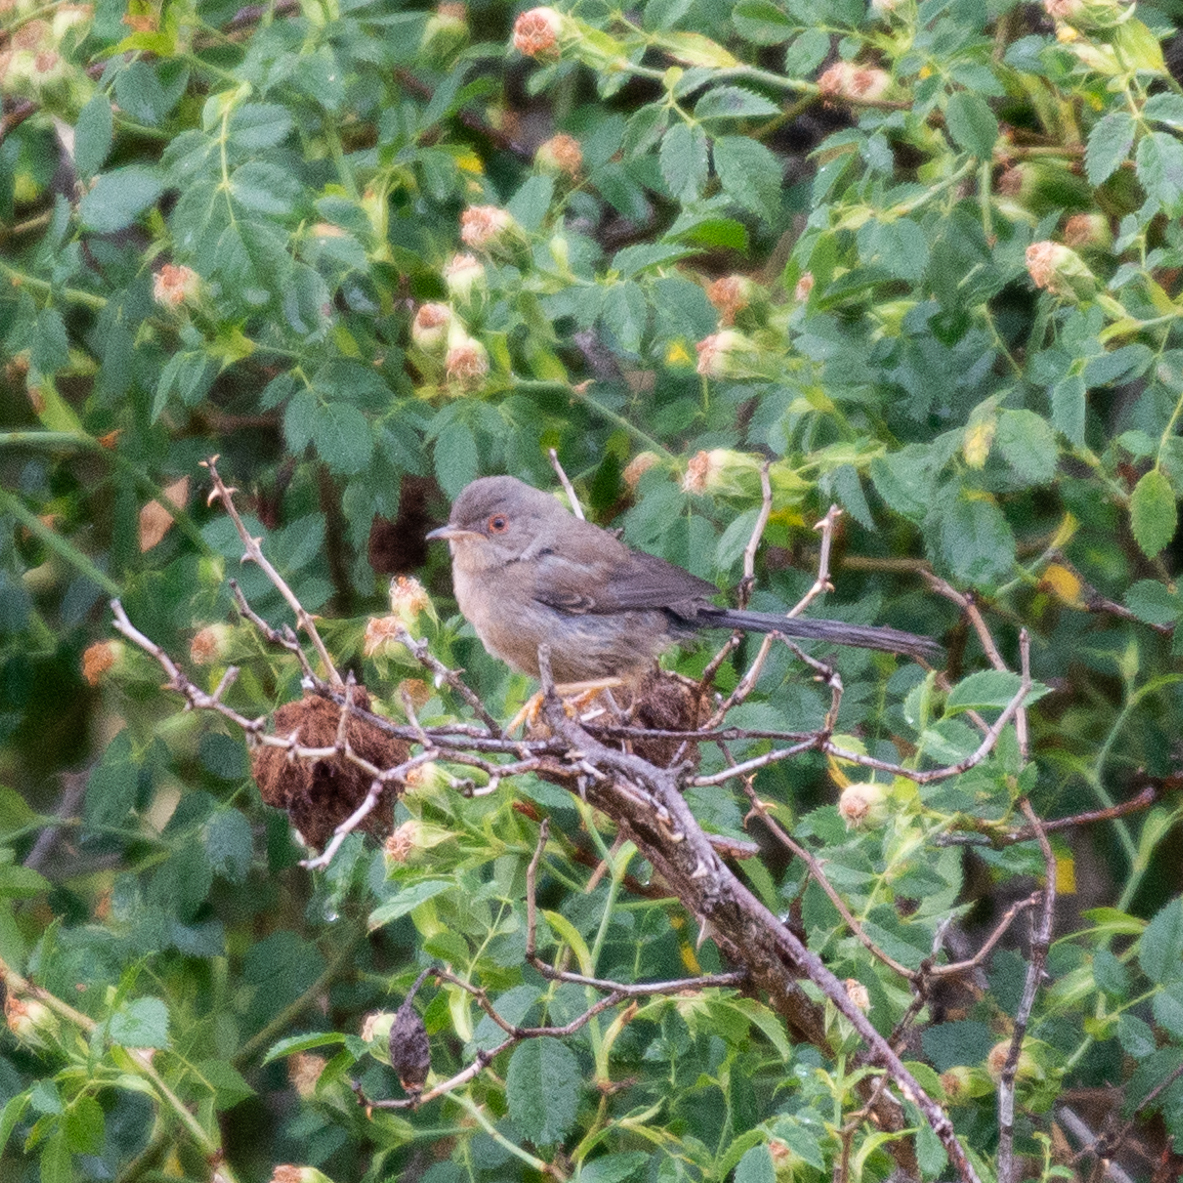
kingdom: Animalia
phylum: Chordata
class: Aves
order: Passeriformes
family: Sylviidae
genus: Sylvia
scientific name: Sylvia undata
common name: Dartford warbler
